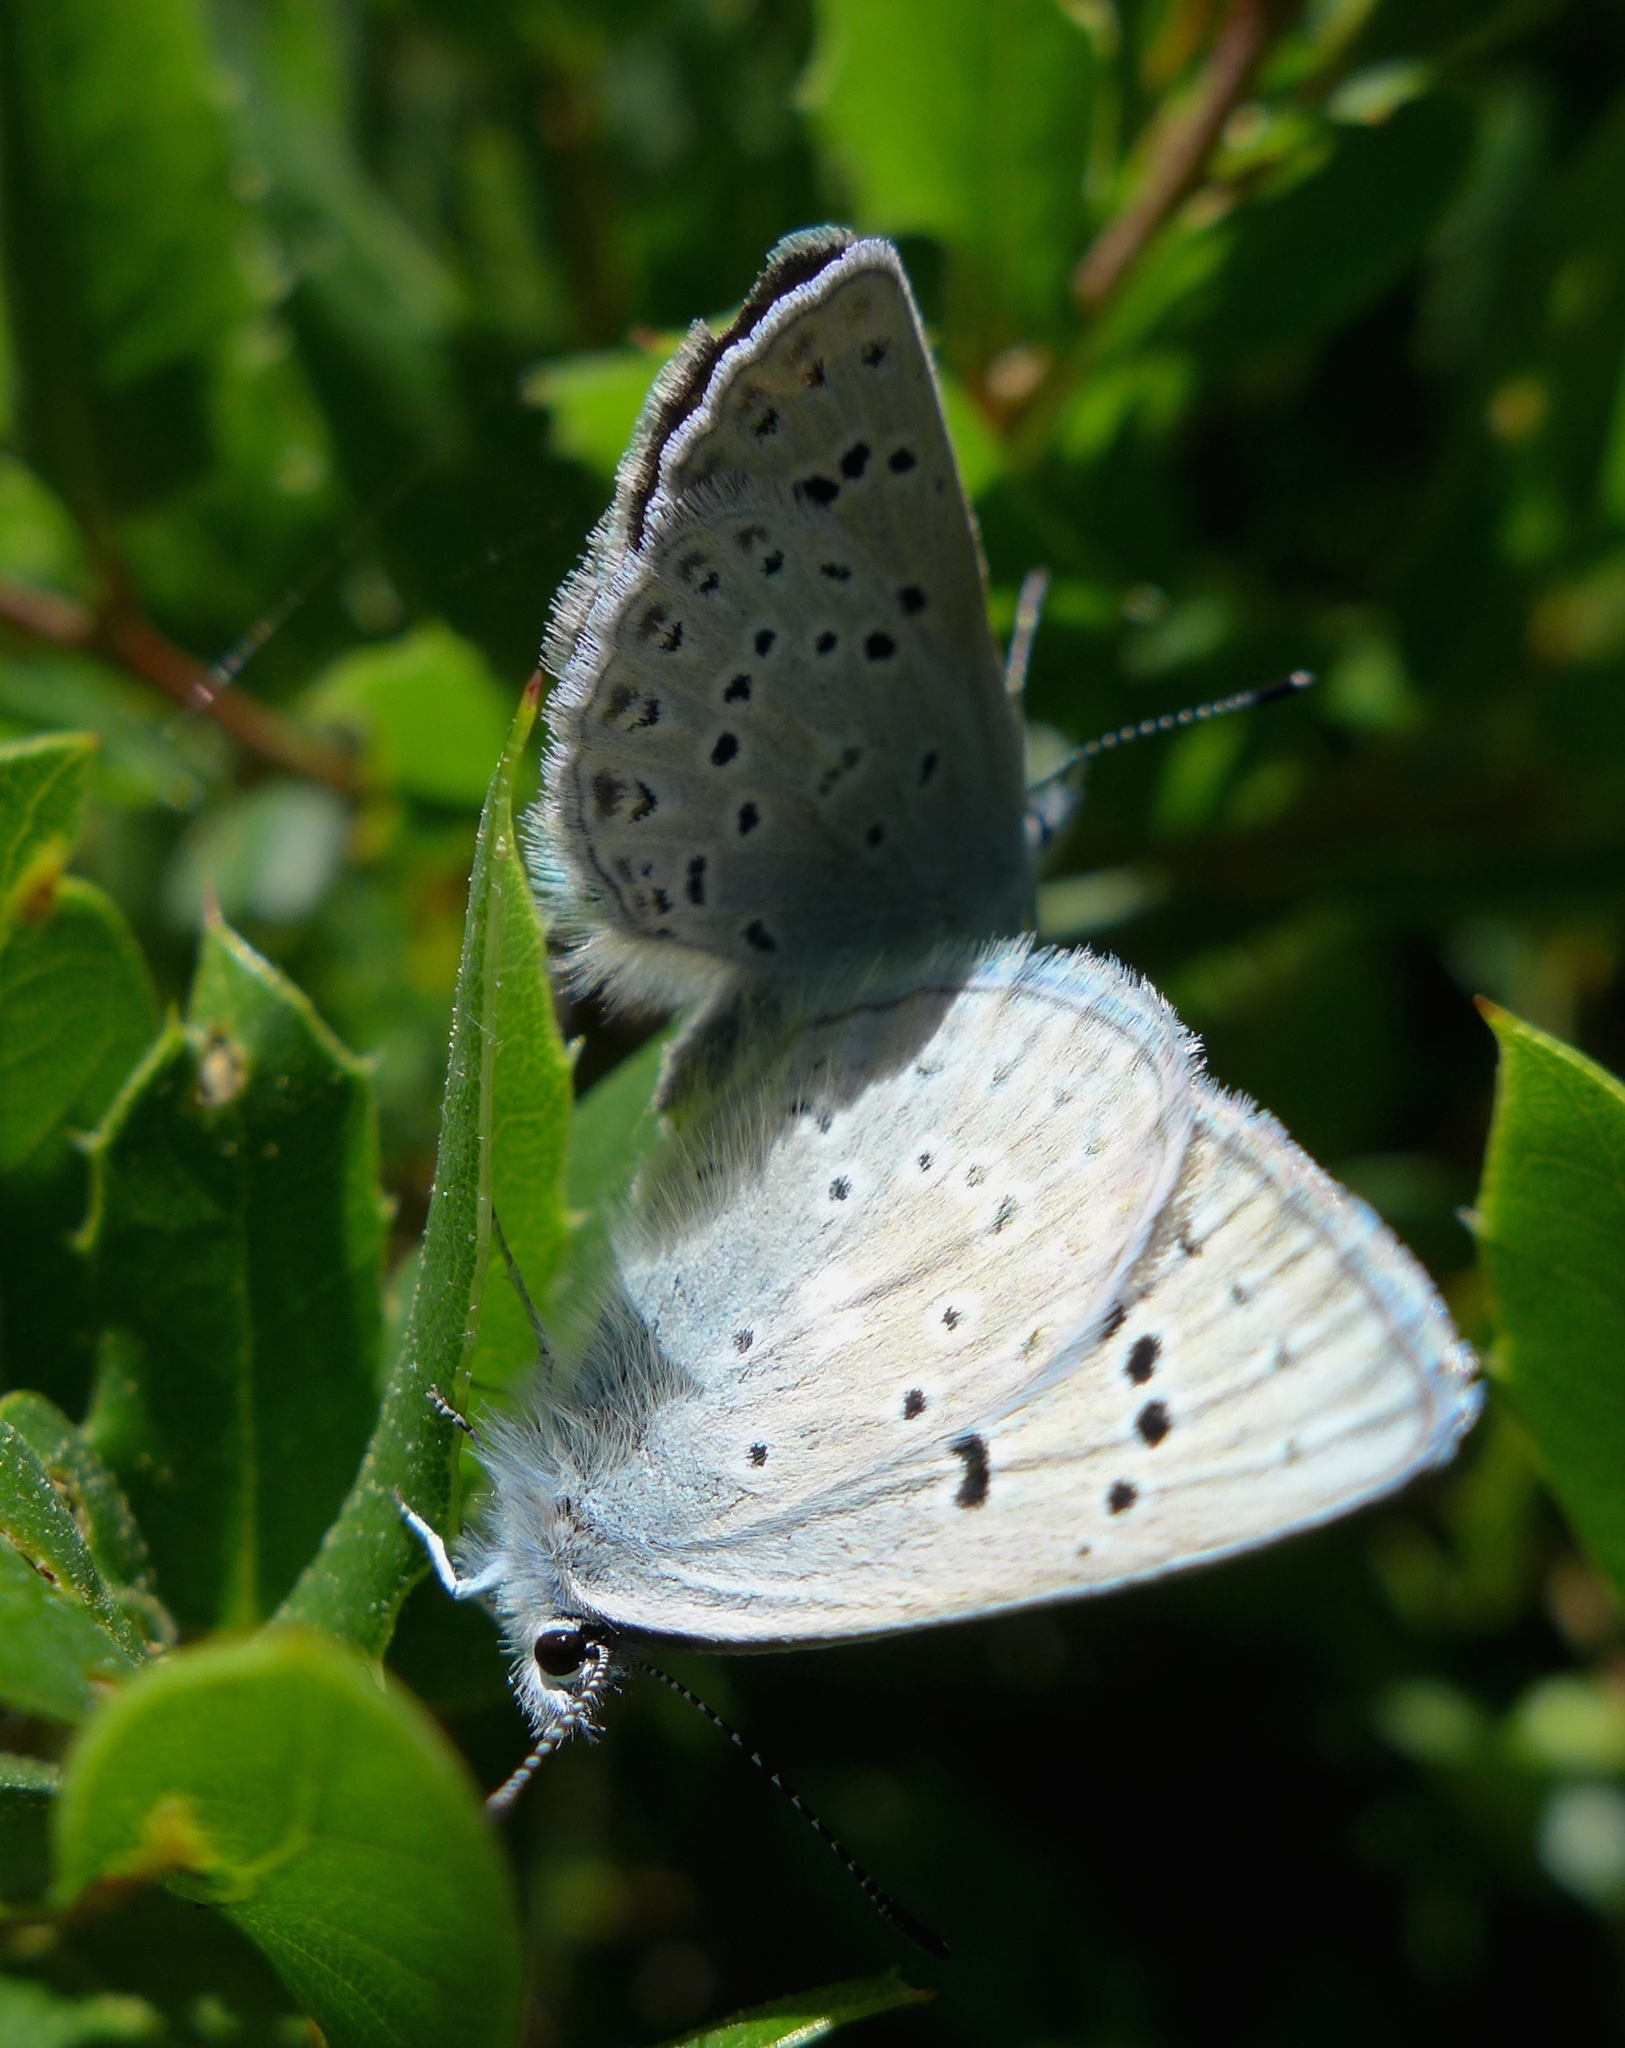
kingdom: Animalia
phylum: Arthropoda
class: Insecta
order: Lepidoptera
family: Lycaenidae
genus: Icaricia
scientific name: Icaricia icarioides
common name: Boisduval's blue
